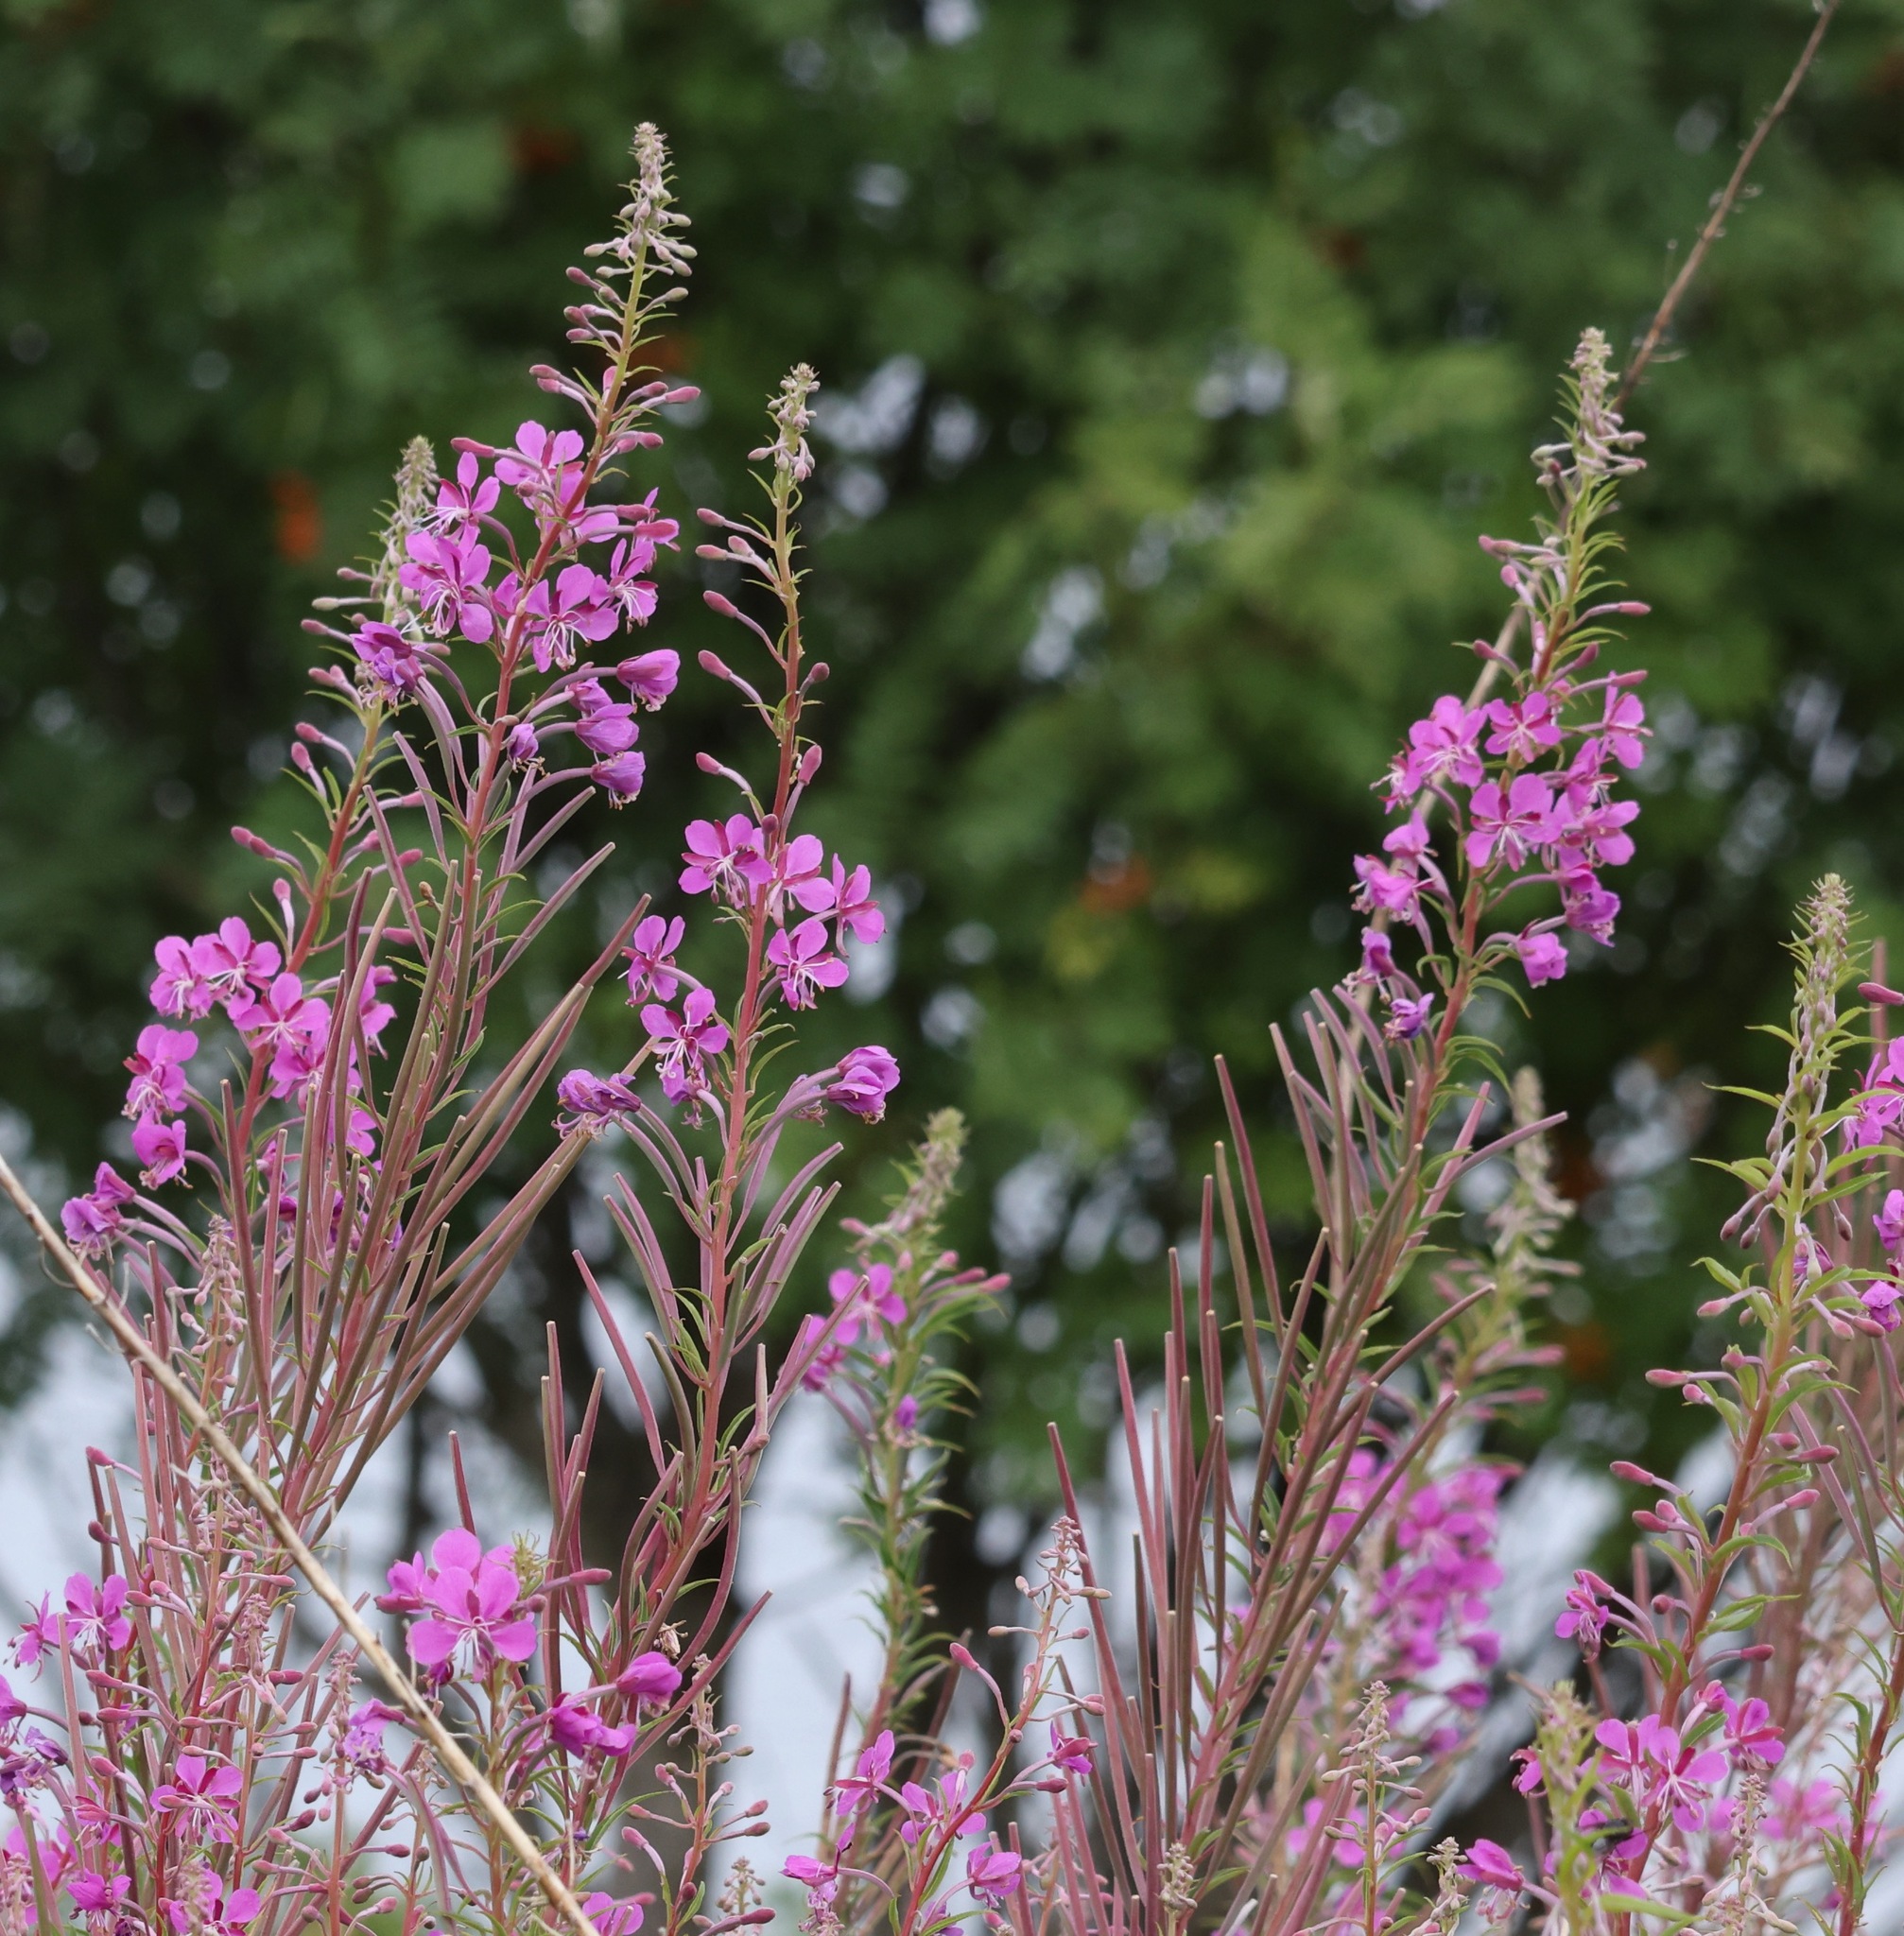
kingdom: Plantae
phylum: Tracheophyta
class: Magnoliopsida
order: Myrtales
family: Onagraceae
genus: Chamaenerion
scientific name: Chamaenerion angustifolium
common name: Fireweed
